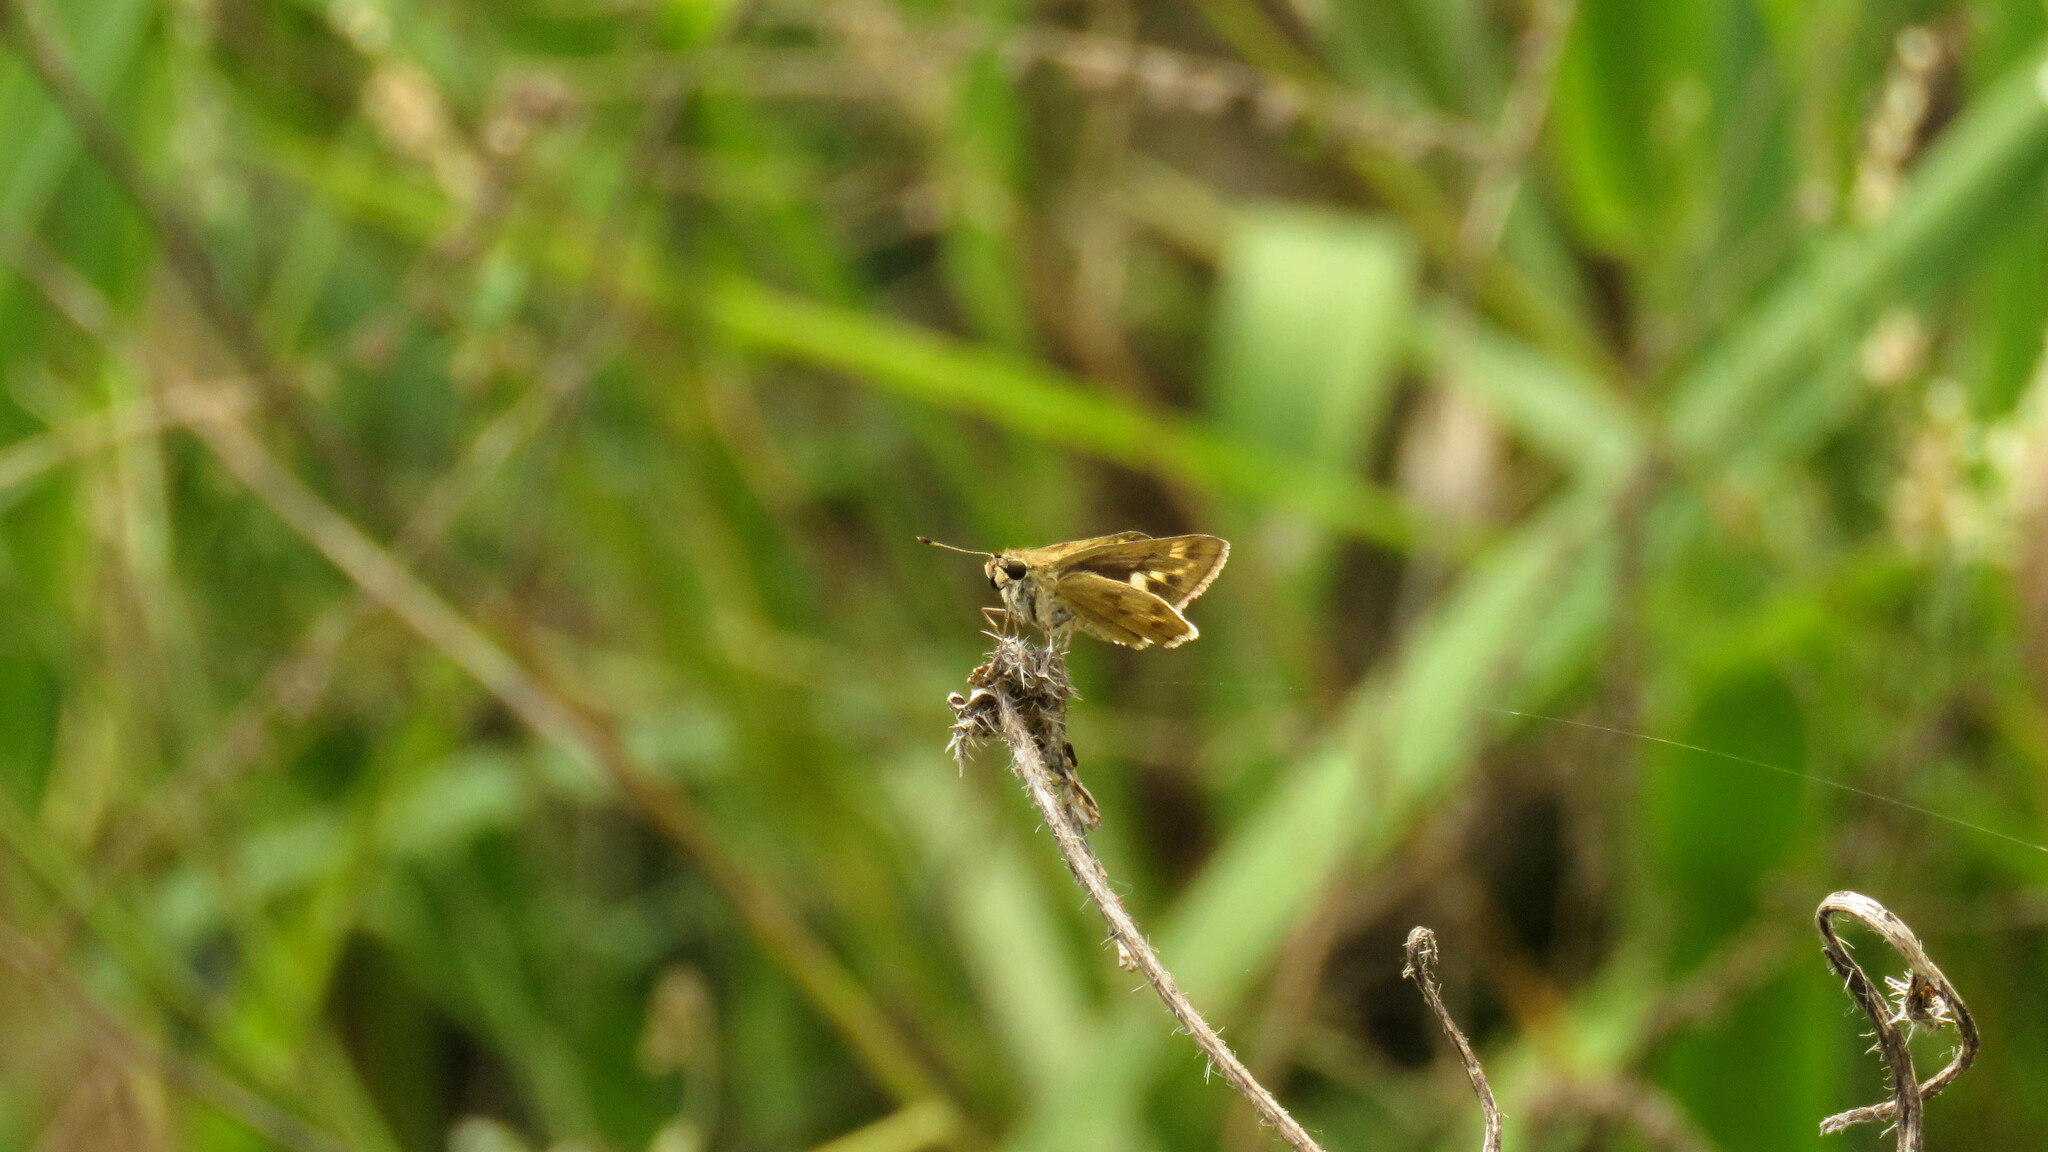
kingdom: Animalia
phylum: Arthropoda
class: Insecta
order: Lepidoptera
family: Hesperiidae
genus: Polites
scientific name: Polites vibex
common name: Whirlabout
